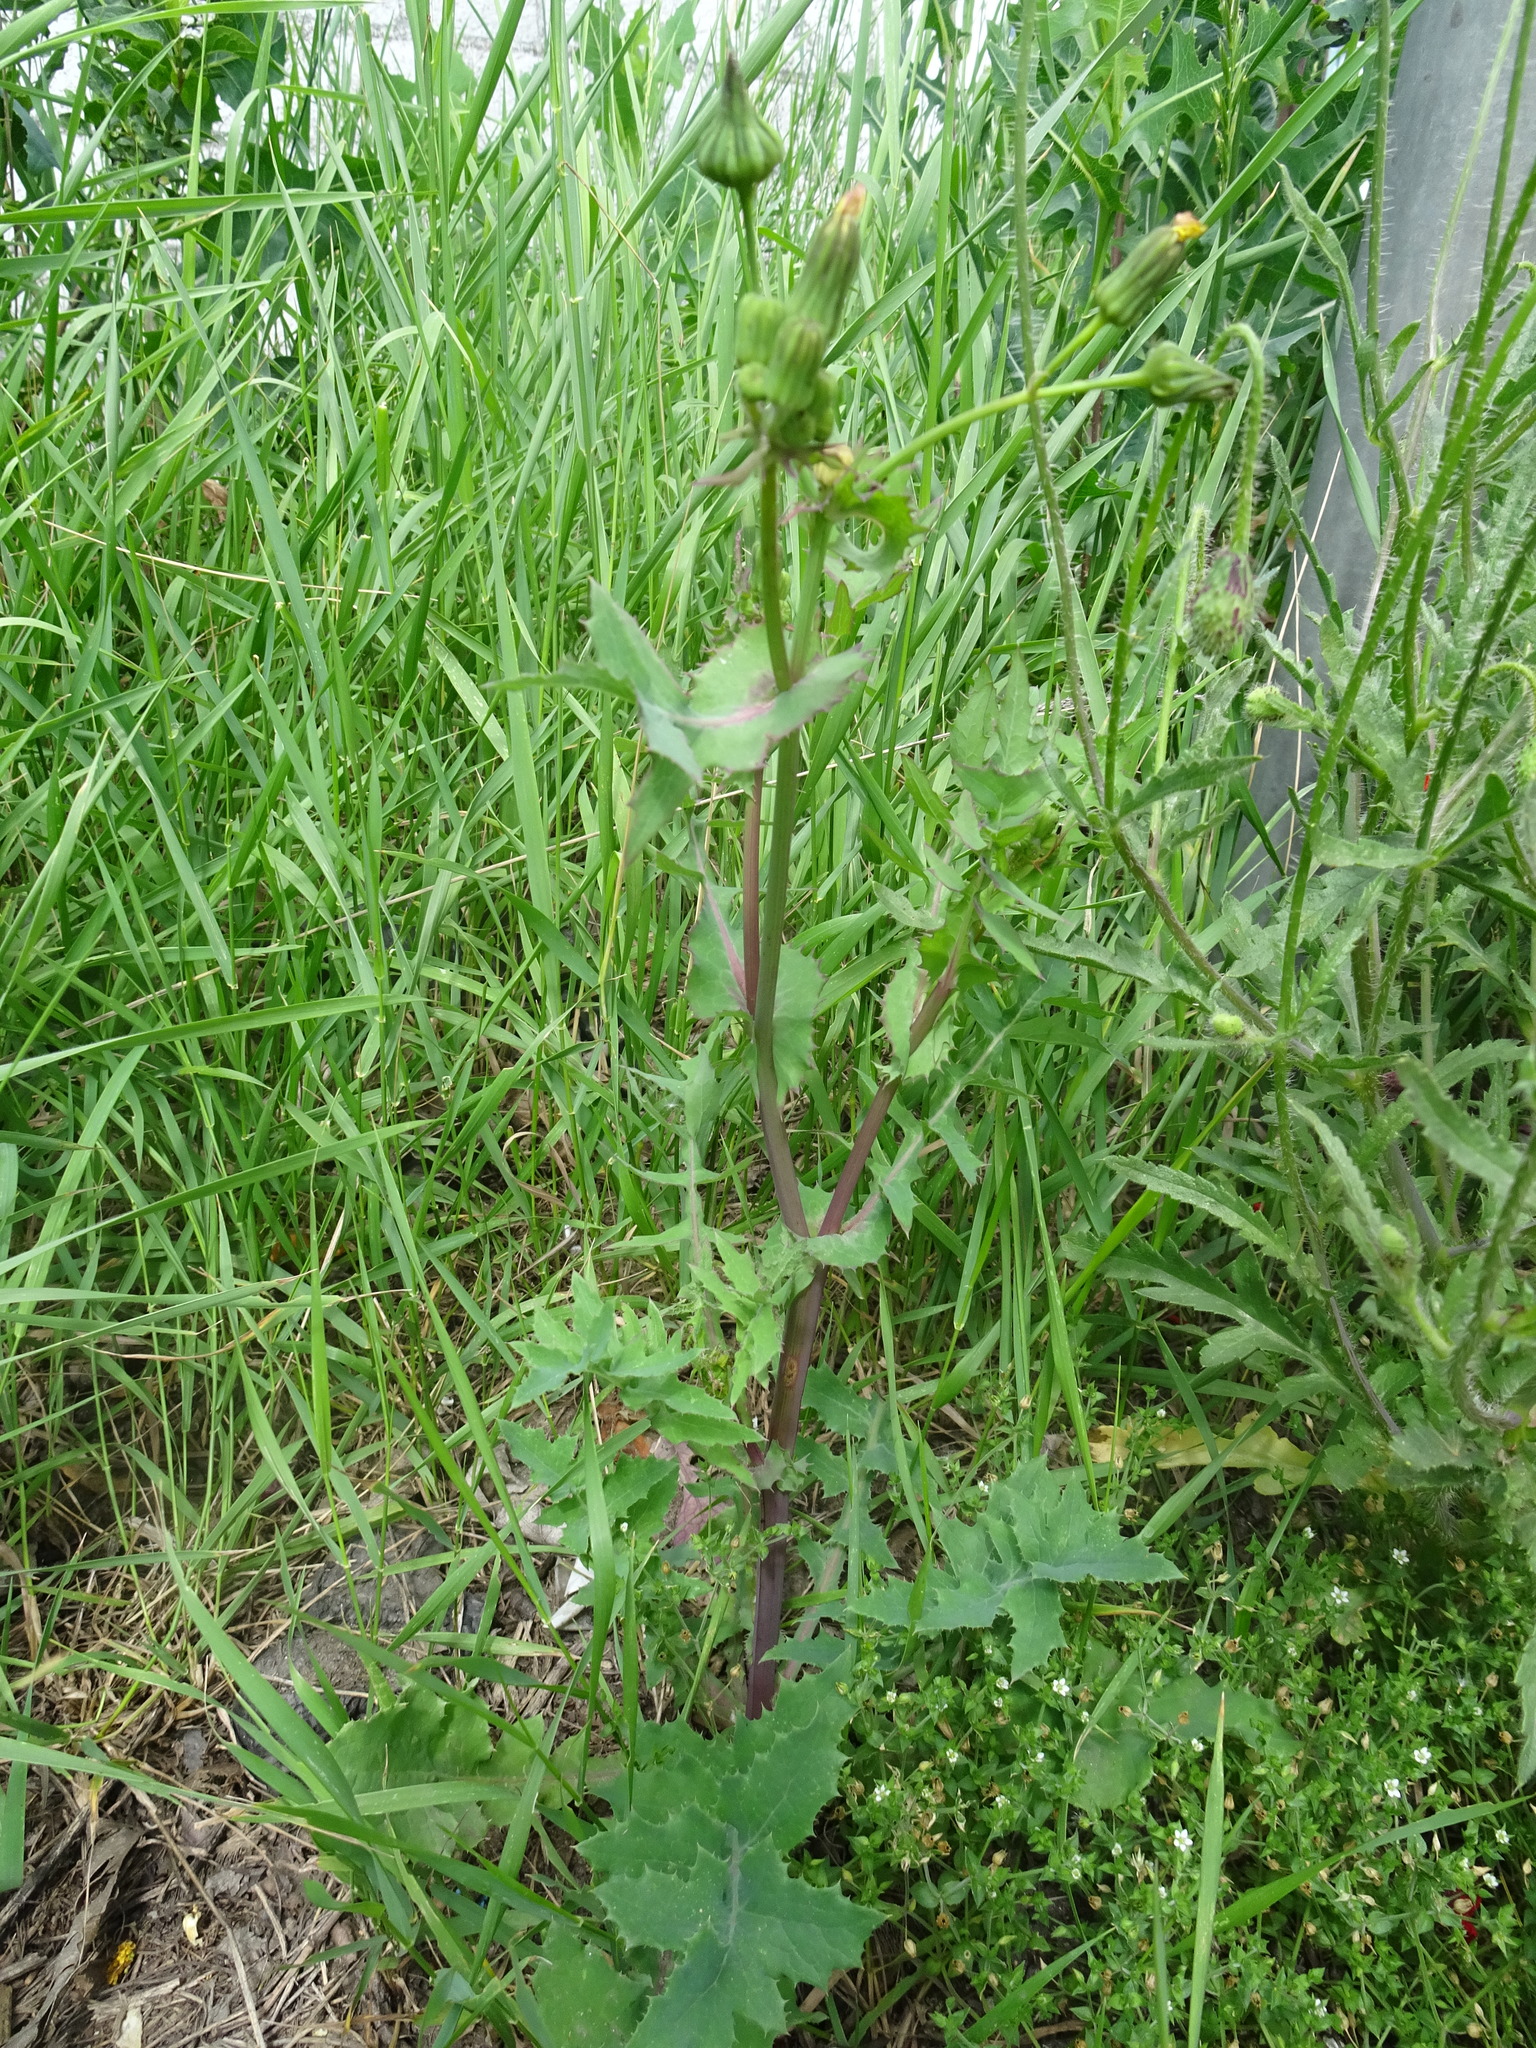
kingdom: Plantae
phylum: Tracheophyta
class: Magnoliopsida
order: Asterales
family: Asteraceae
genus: Sonchus
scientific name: Sonchus oleraceus
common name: Common sowthistle
